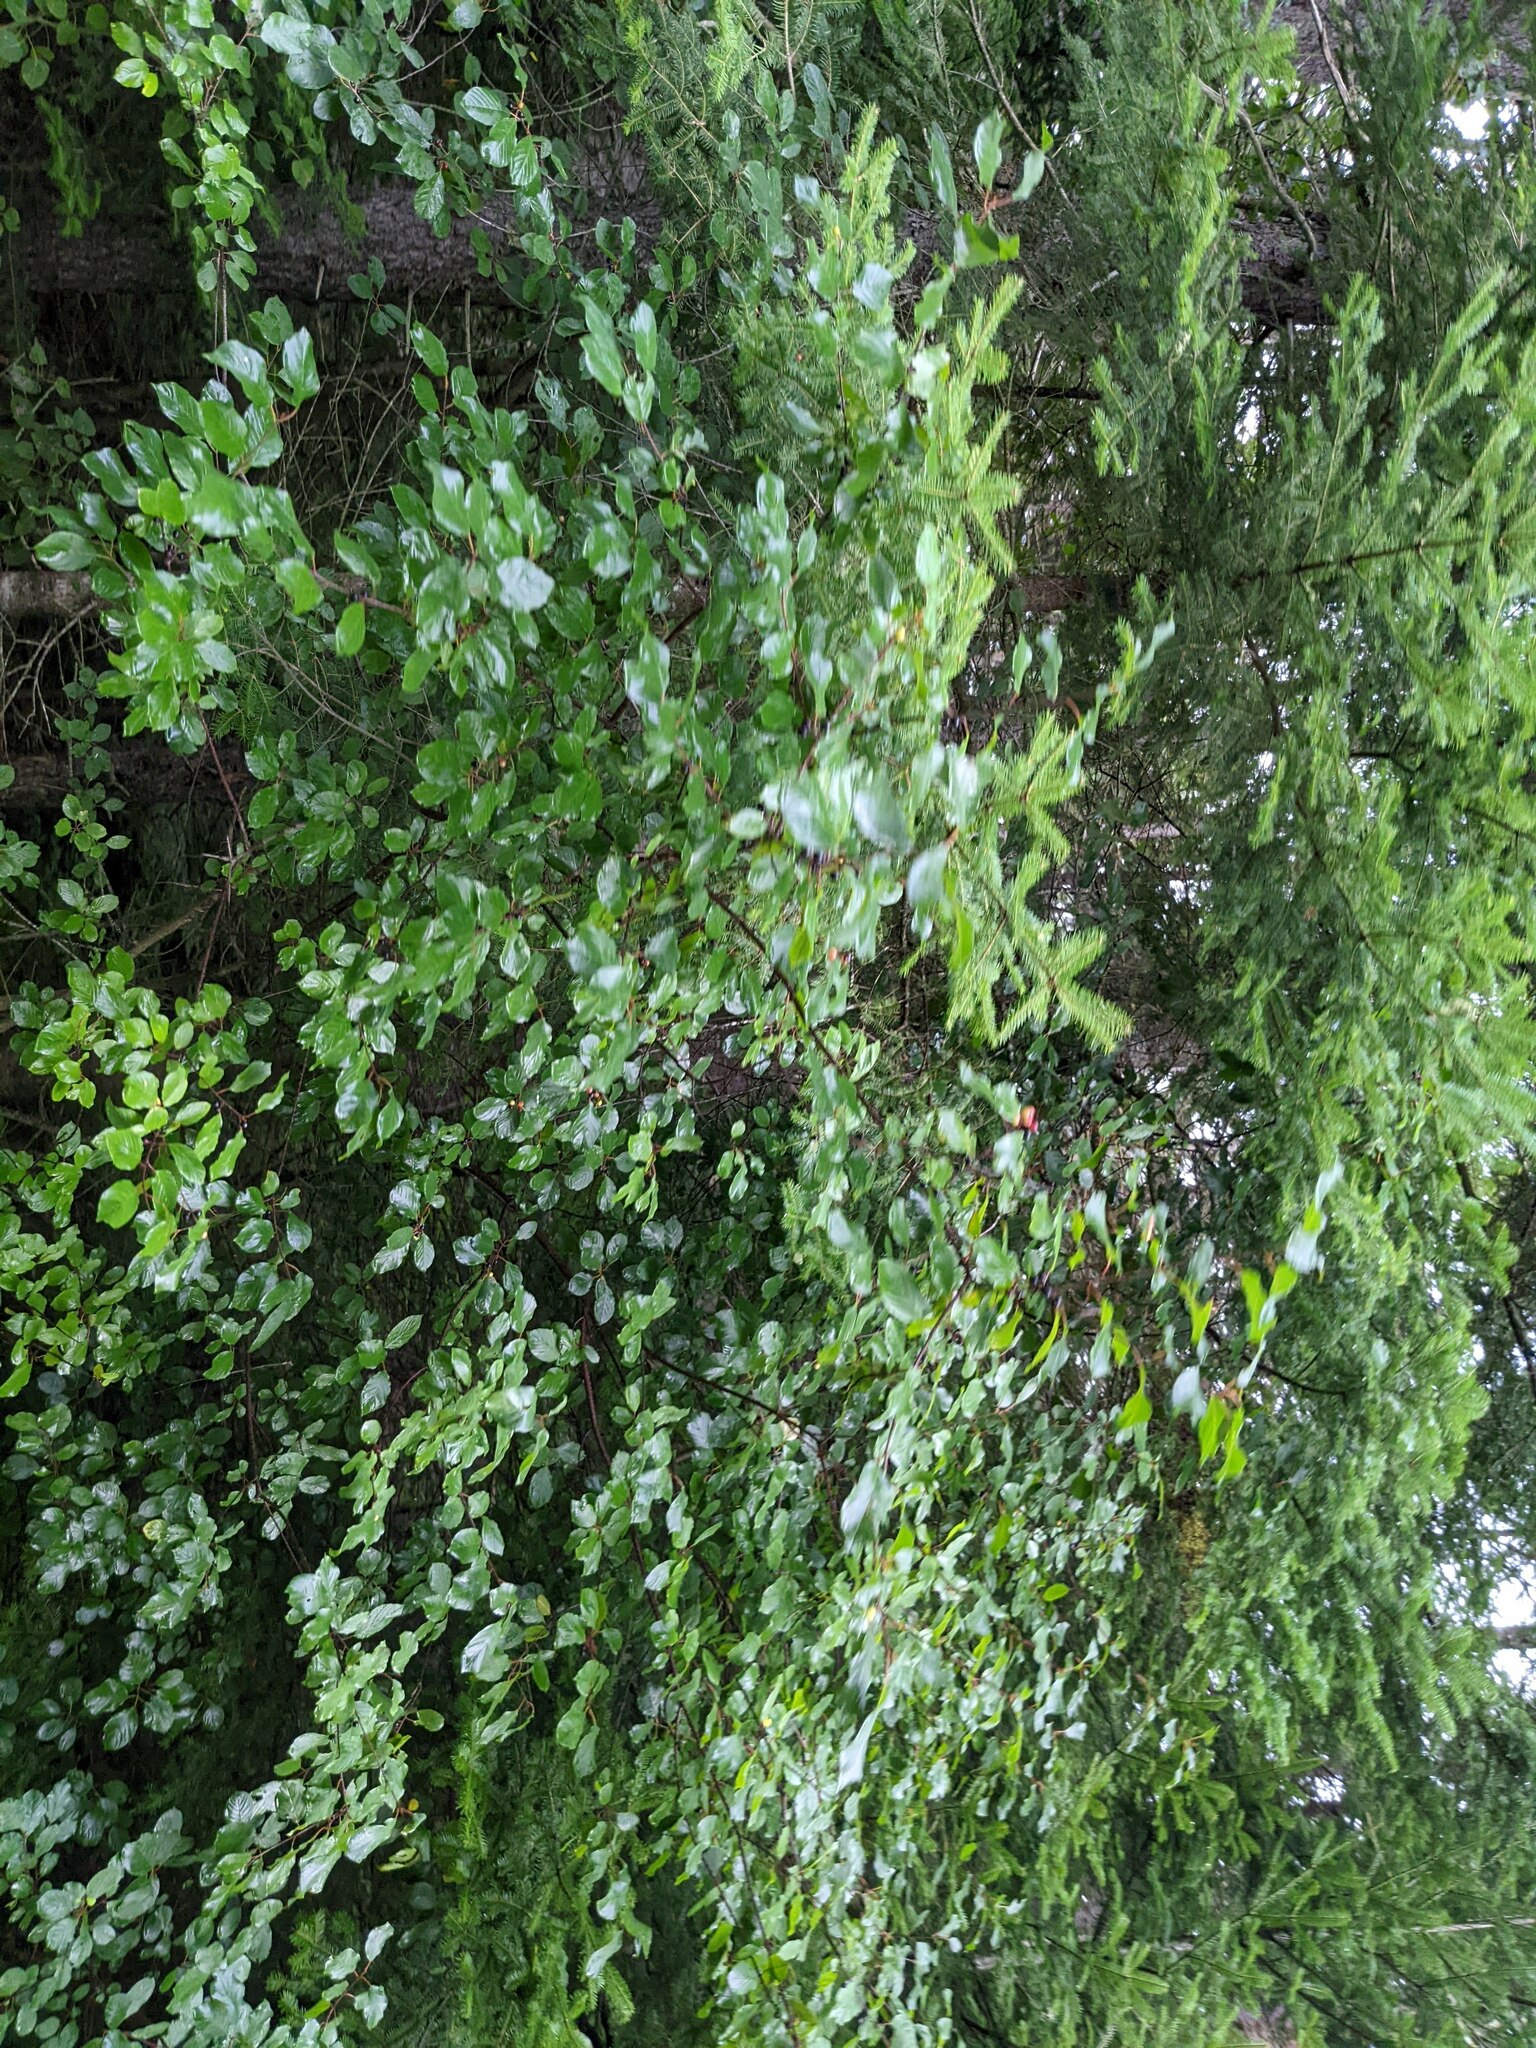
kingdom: Plantae
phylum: Tracheophyta
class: Magnoliopsida
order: Rosales
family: Rhamnaceae
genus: Frangula
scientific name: Frangula alnus
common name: Alder buckthorn
